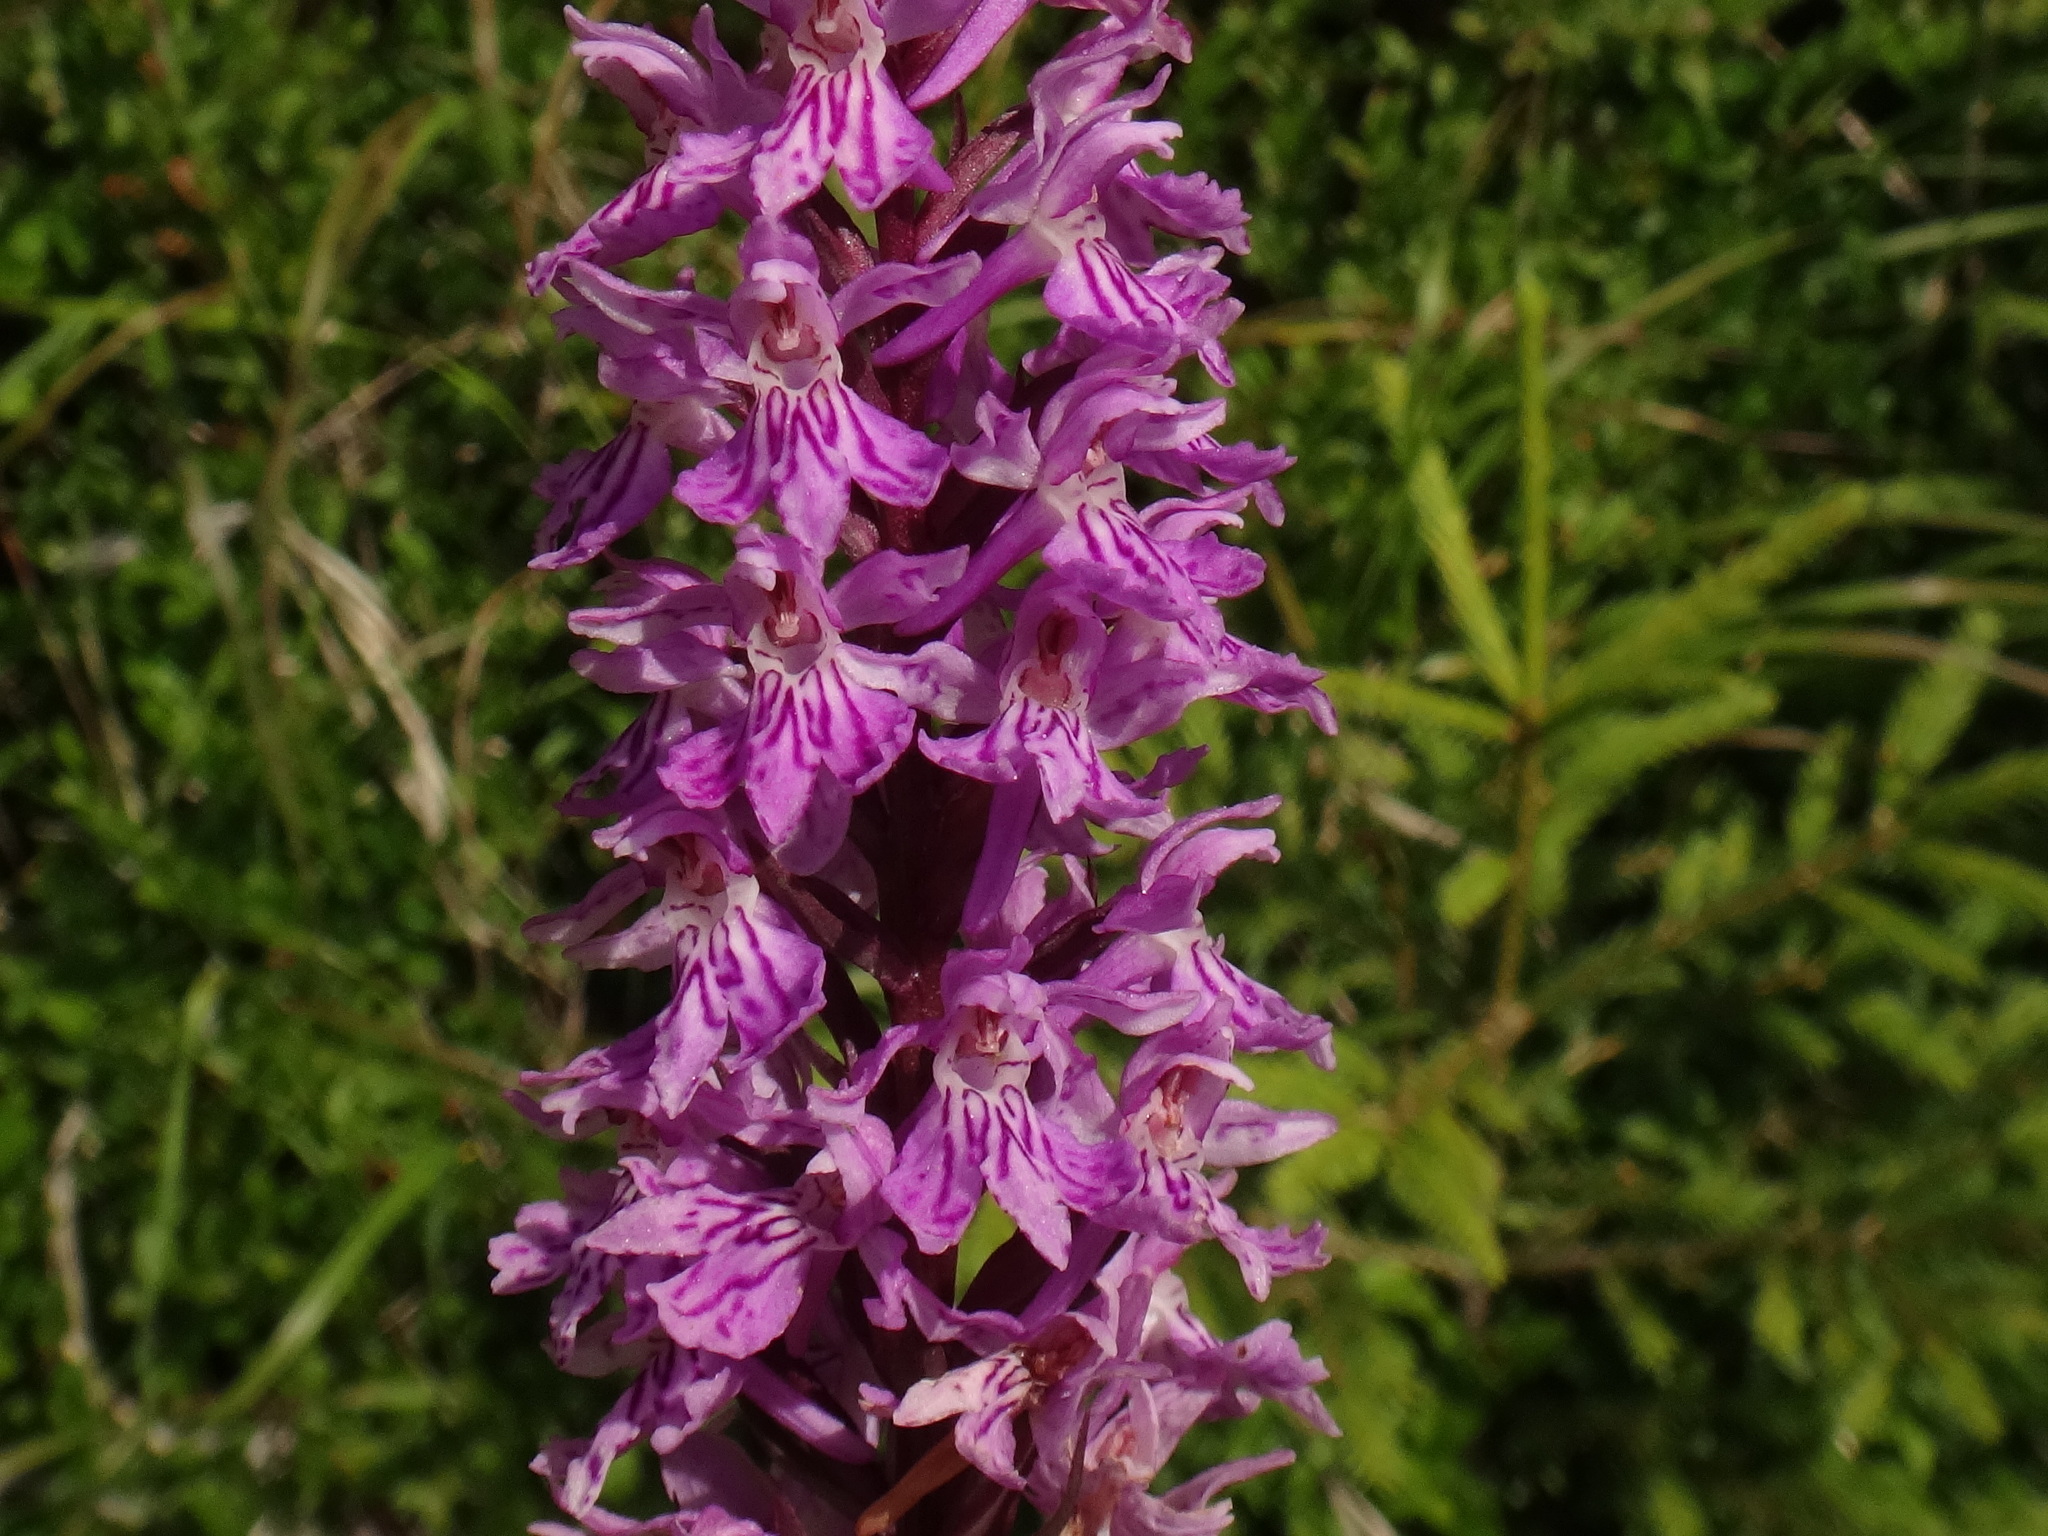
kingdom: Plantae
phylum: Tracheophyta
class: Liliopsida
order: Asparagales
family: Orchidaceae
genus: Dactylorhiza
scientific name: Dactylorhiza maculata
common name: Heath spotted-orchid
